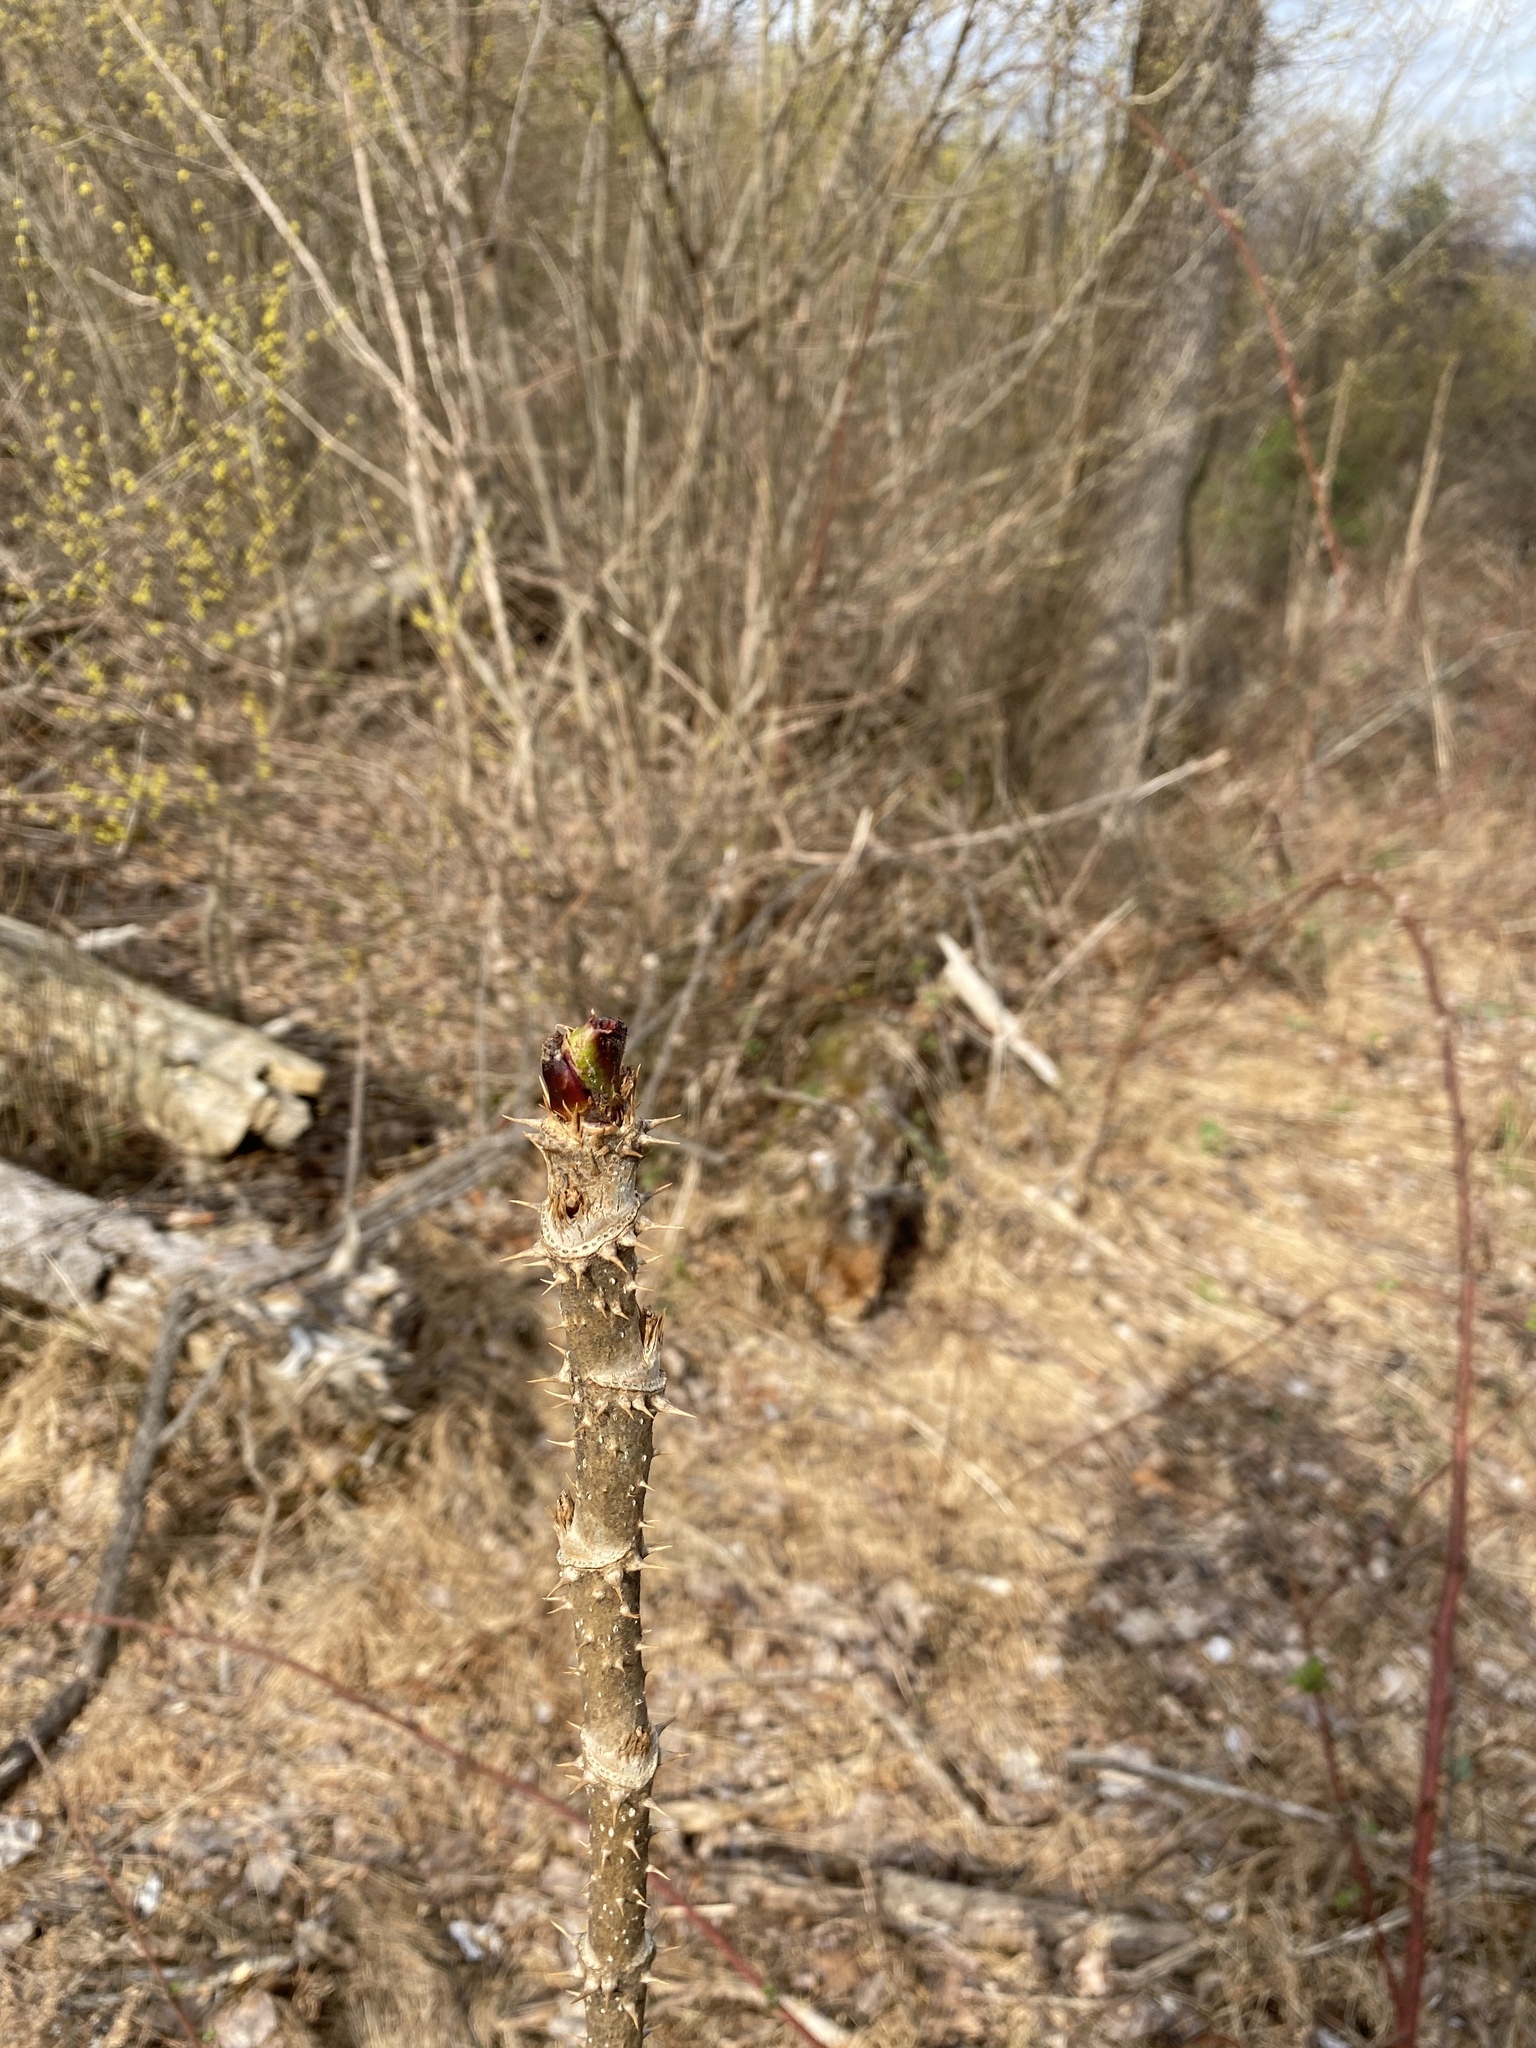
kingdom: Plantae
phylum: Tracheophyta
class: Magnoliopsida
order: Apiales
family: Araliaceae
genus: Aralia
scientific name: Aralia elata
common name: Japanese angelica-tree
